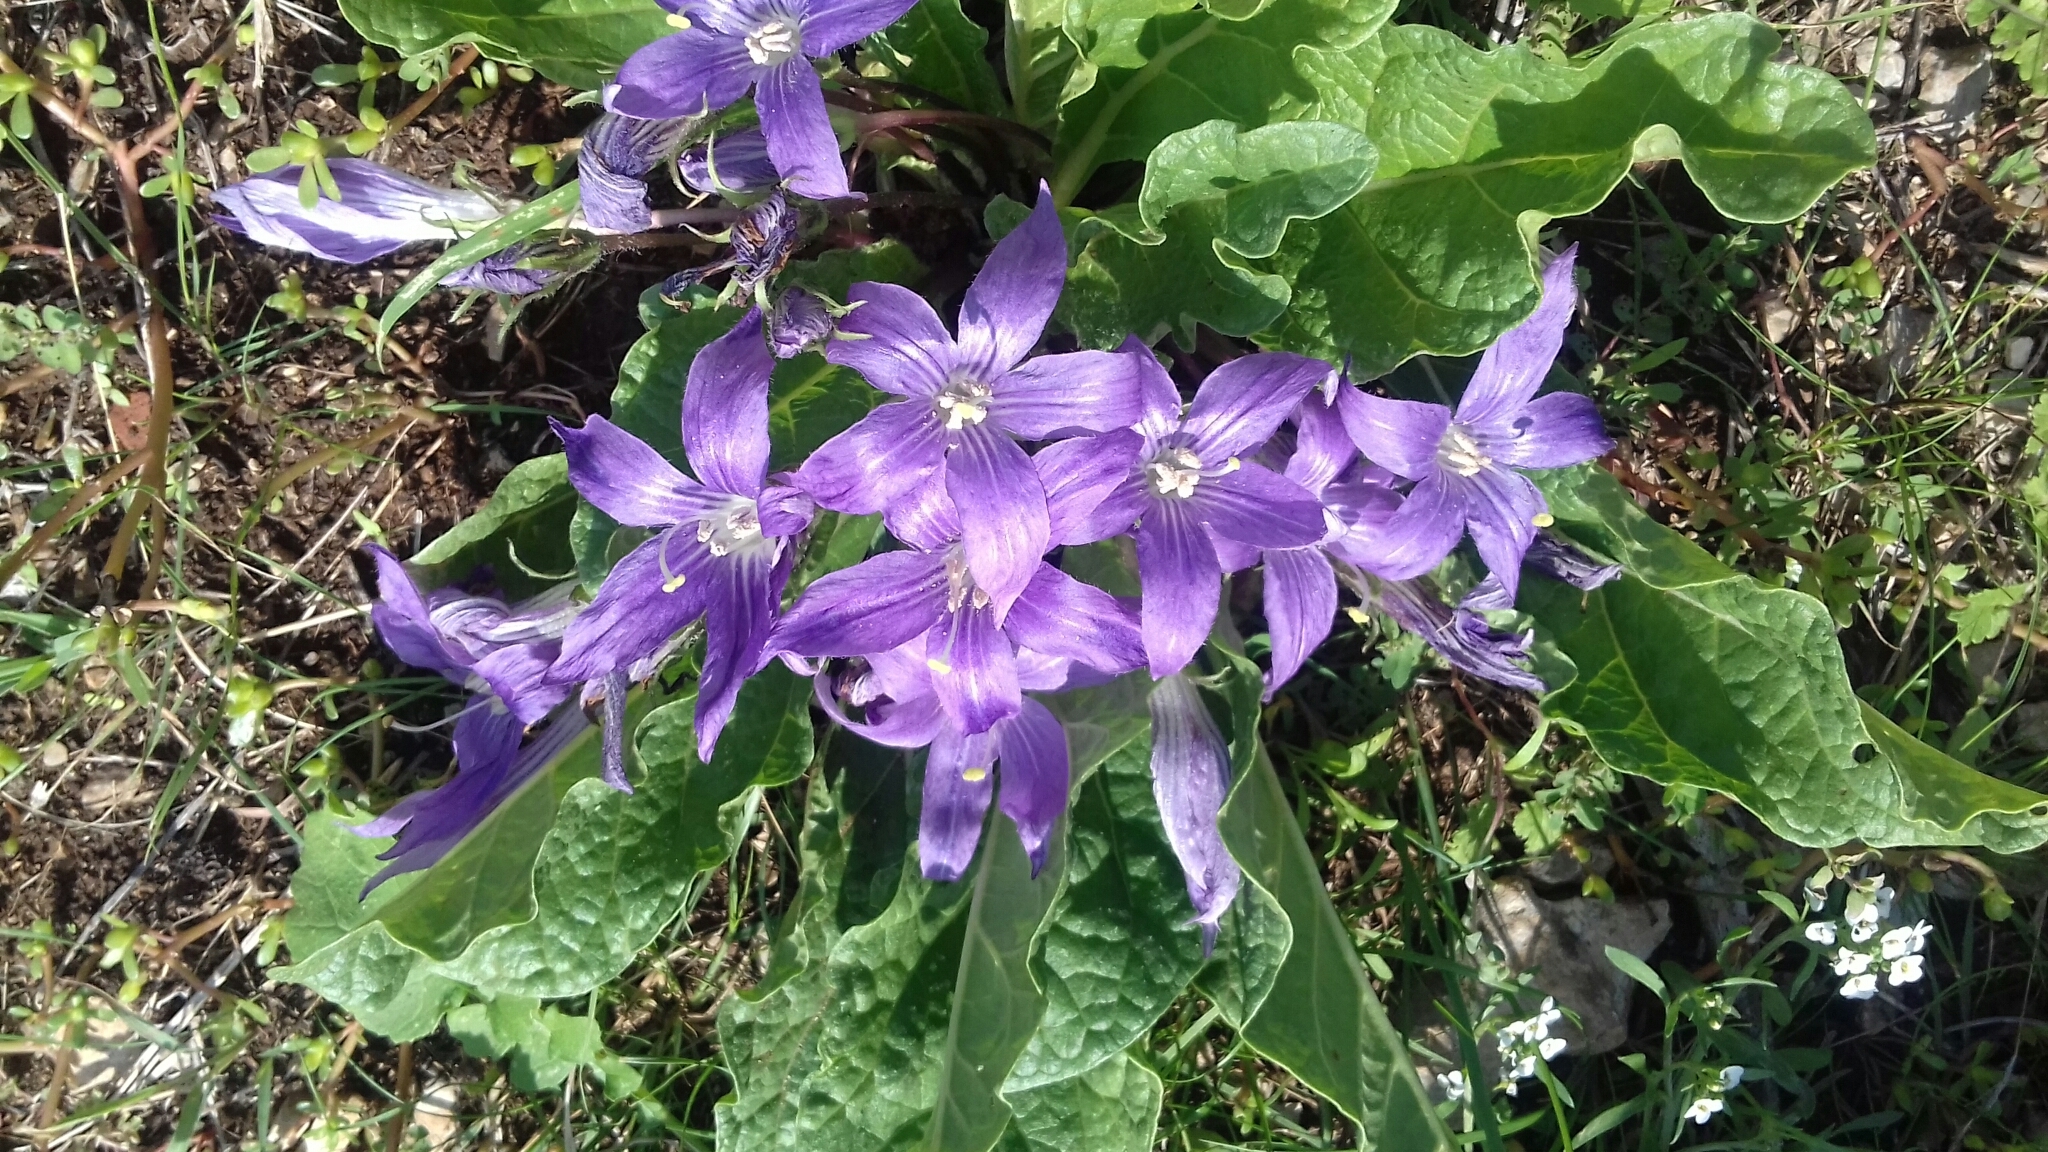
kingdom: Plantae
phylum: Tracheophyta
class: Magnoliopsida
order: Solanales
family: Solanaceae
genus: Mandragora
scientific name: Mandragora officinarum
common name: Mandrake
